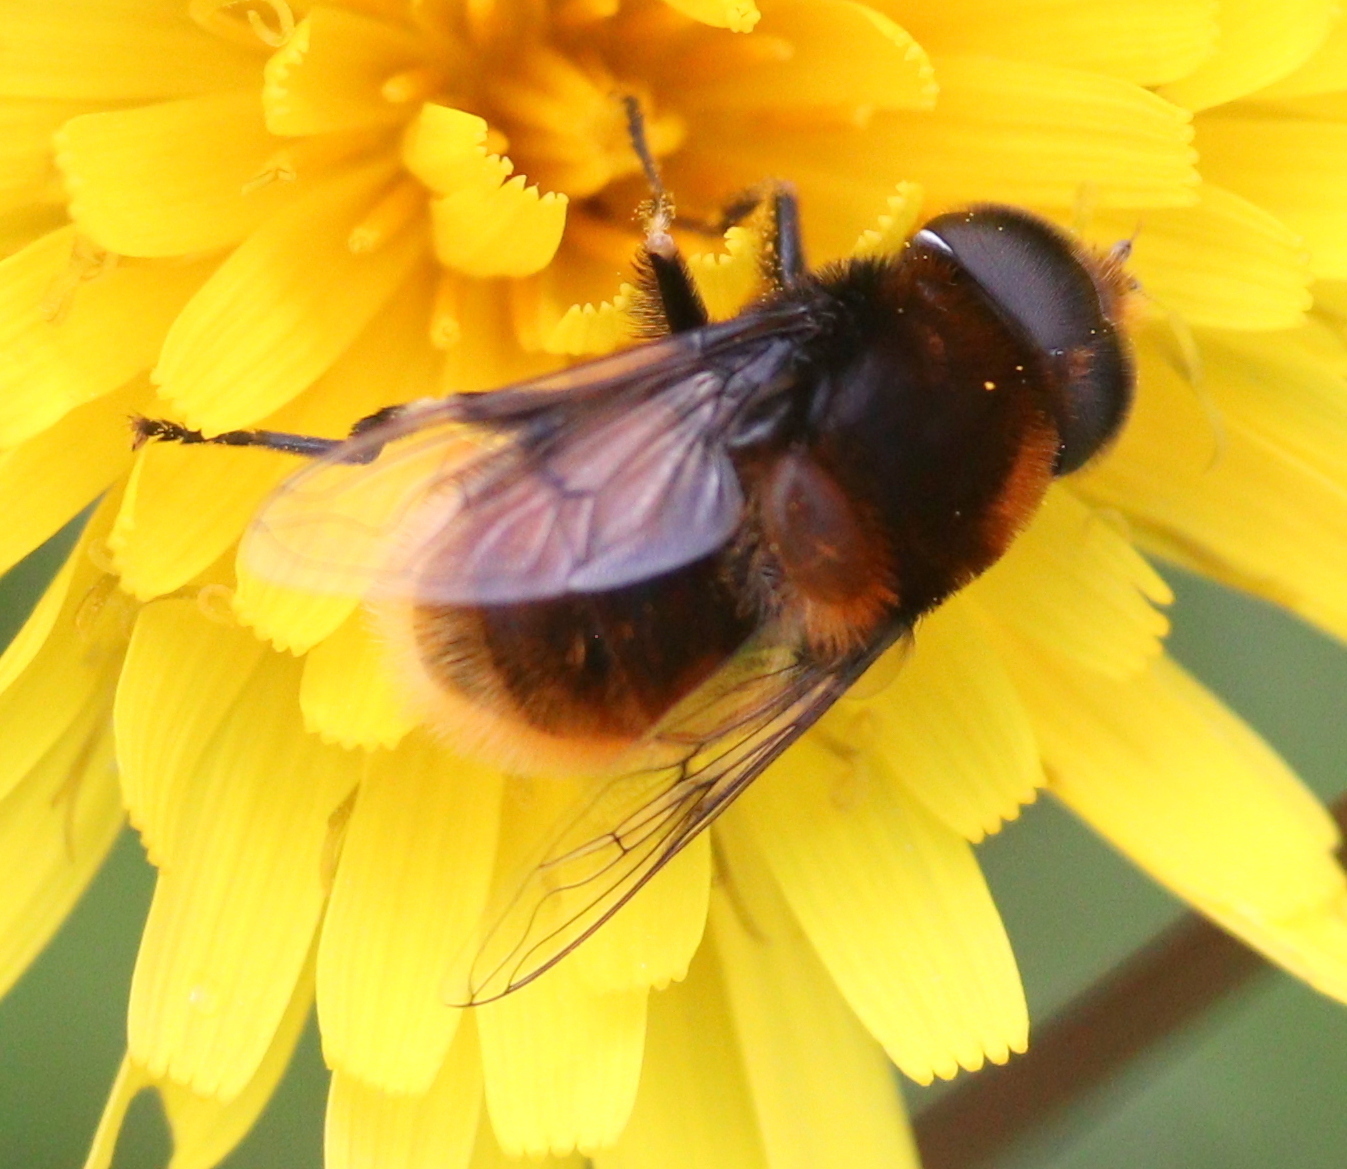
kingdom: Animalia
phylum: Arthropoda
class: Insecta
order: Diptera
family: Syrphidae
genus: Eristalis
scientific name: Eristalis intricaria
